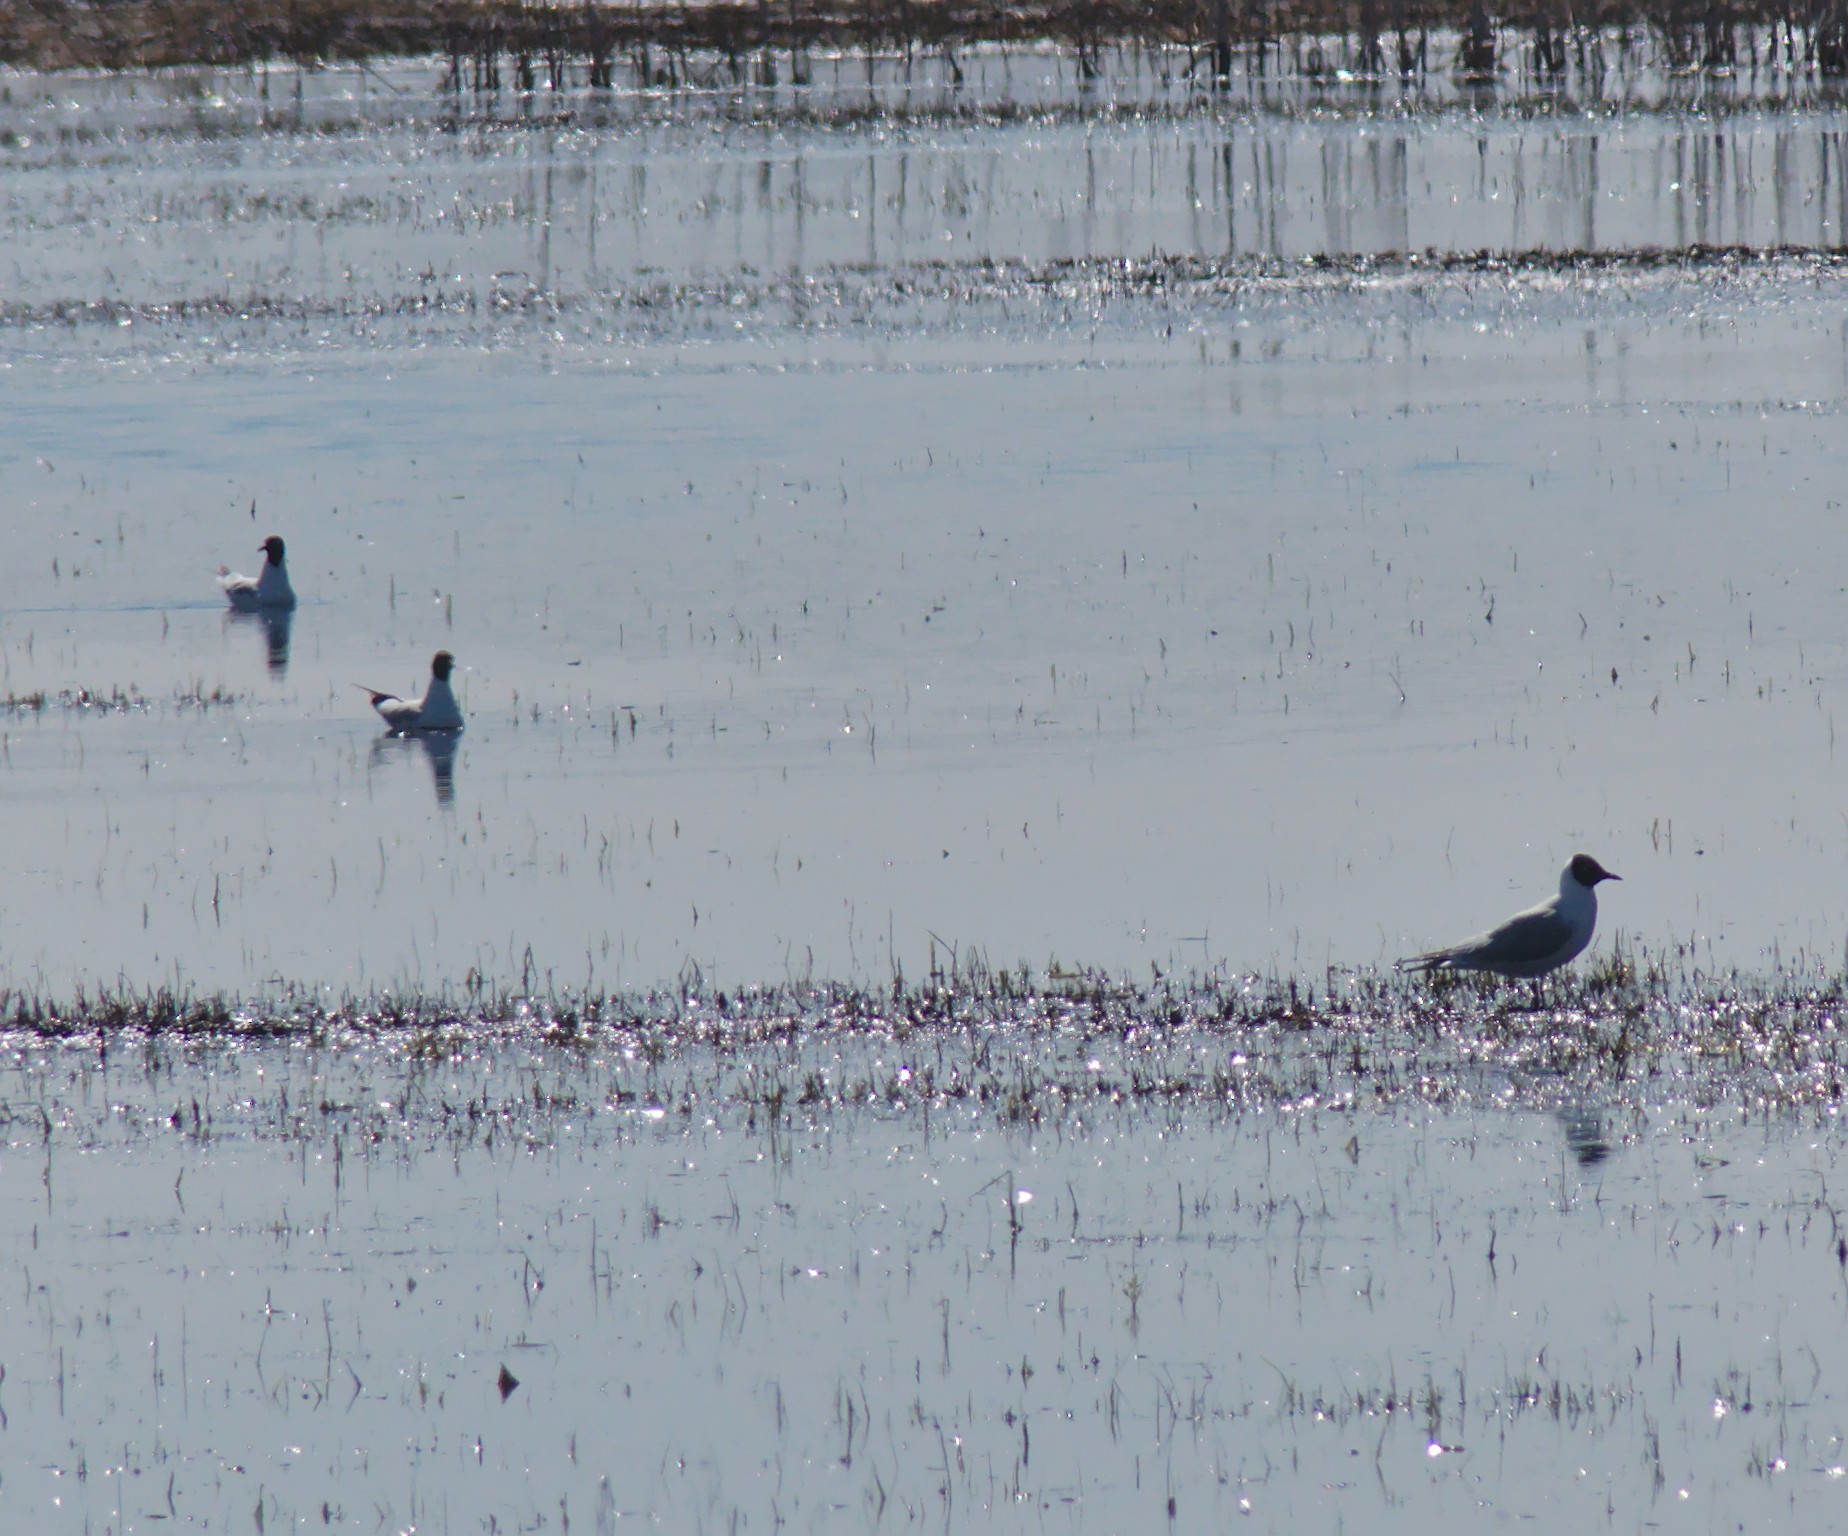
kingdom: Animalia
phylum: Chordata
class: Aves
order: Charadriiformes
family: Laridae
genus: Chroicocephalus
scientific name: Chroicocephalus ridibundus
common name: Black-headed gull
